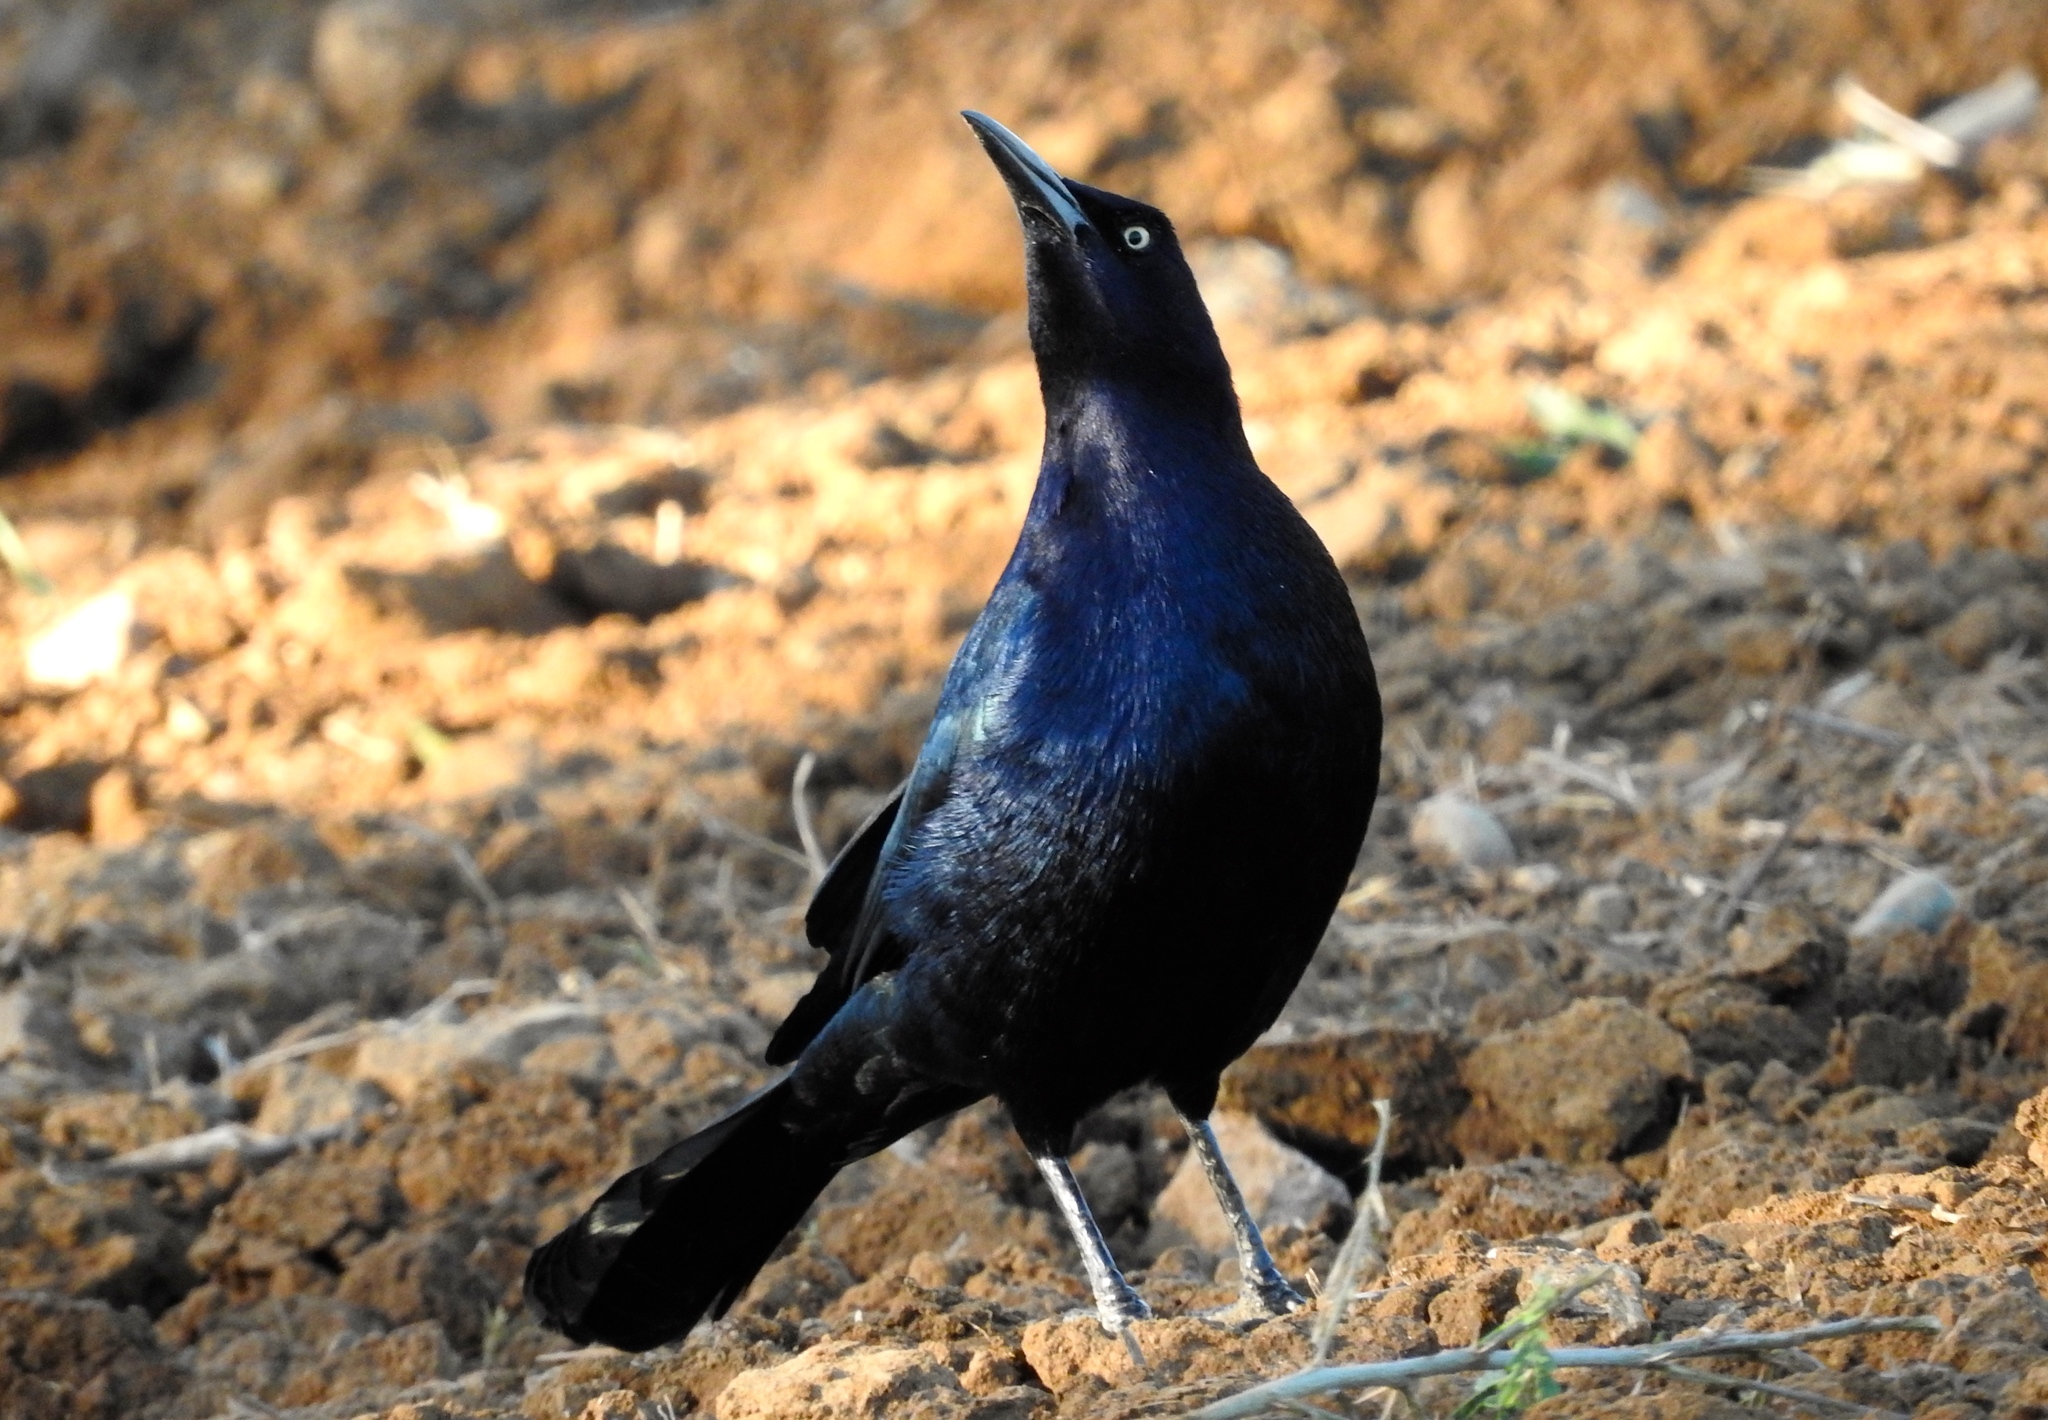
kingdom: Animalia
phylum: Chordata
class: Aves
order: Passeriformes
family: Icteridae
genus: Quiscalus
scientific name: Quiscalus mexicanus
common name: Great-tailed grackle
